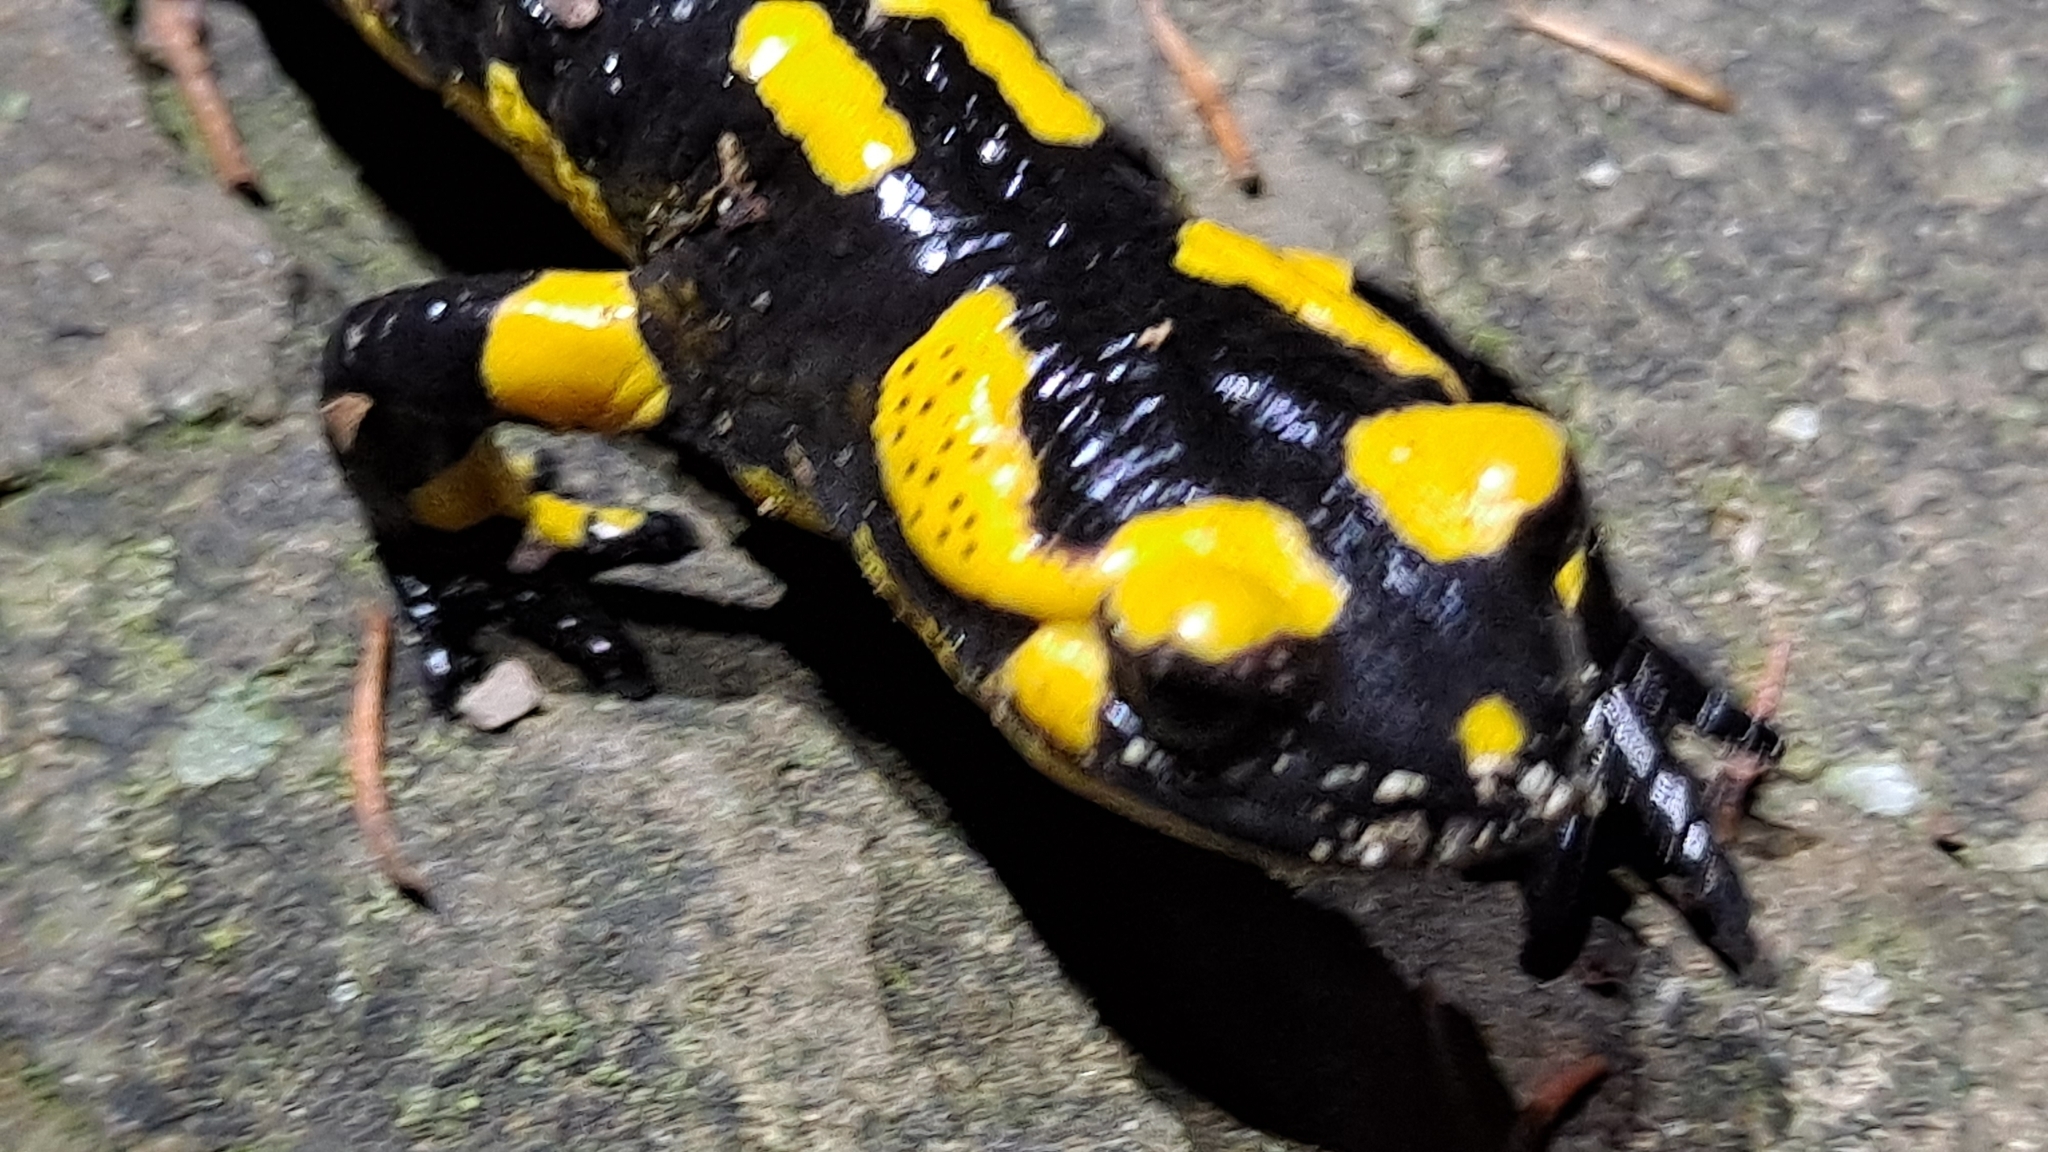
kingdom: Animalia
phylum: Chordata
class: Amphibia
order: Caudata
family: Salamandridae
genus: Salamandra
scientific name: Salamandra salamandra
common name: Fire salamander
